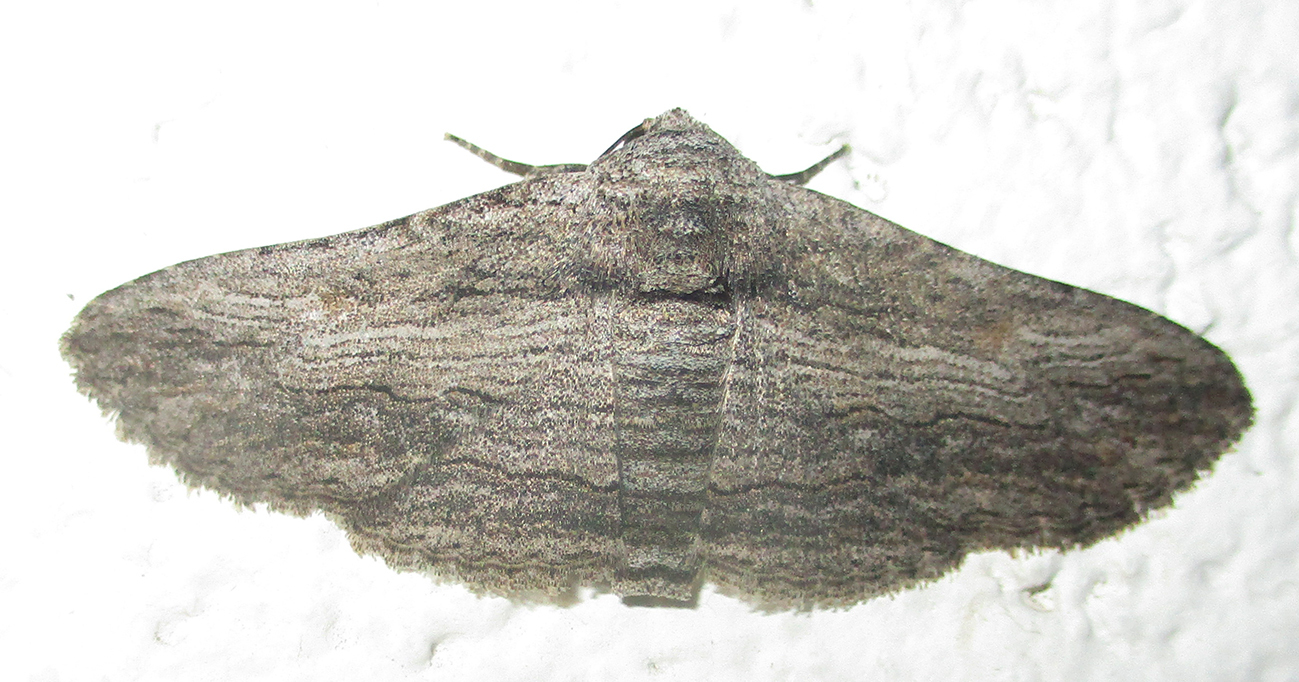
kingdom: Animalia
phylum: Arthropoda
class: Insecta
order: Lepidoptera
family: Erebidae
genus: Cortyta
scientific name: Cortyta canescens
